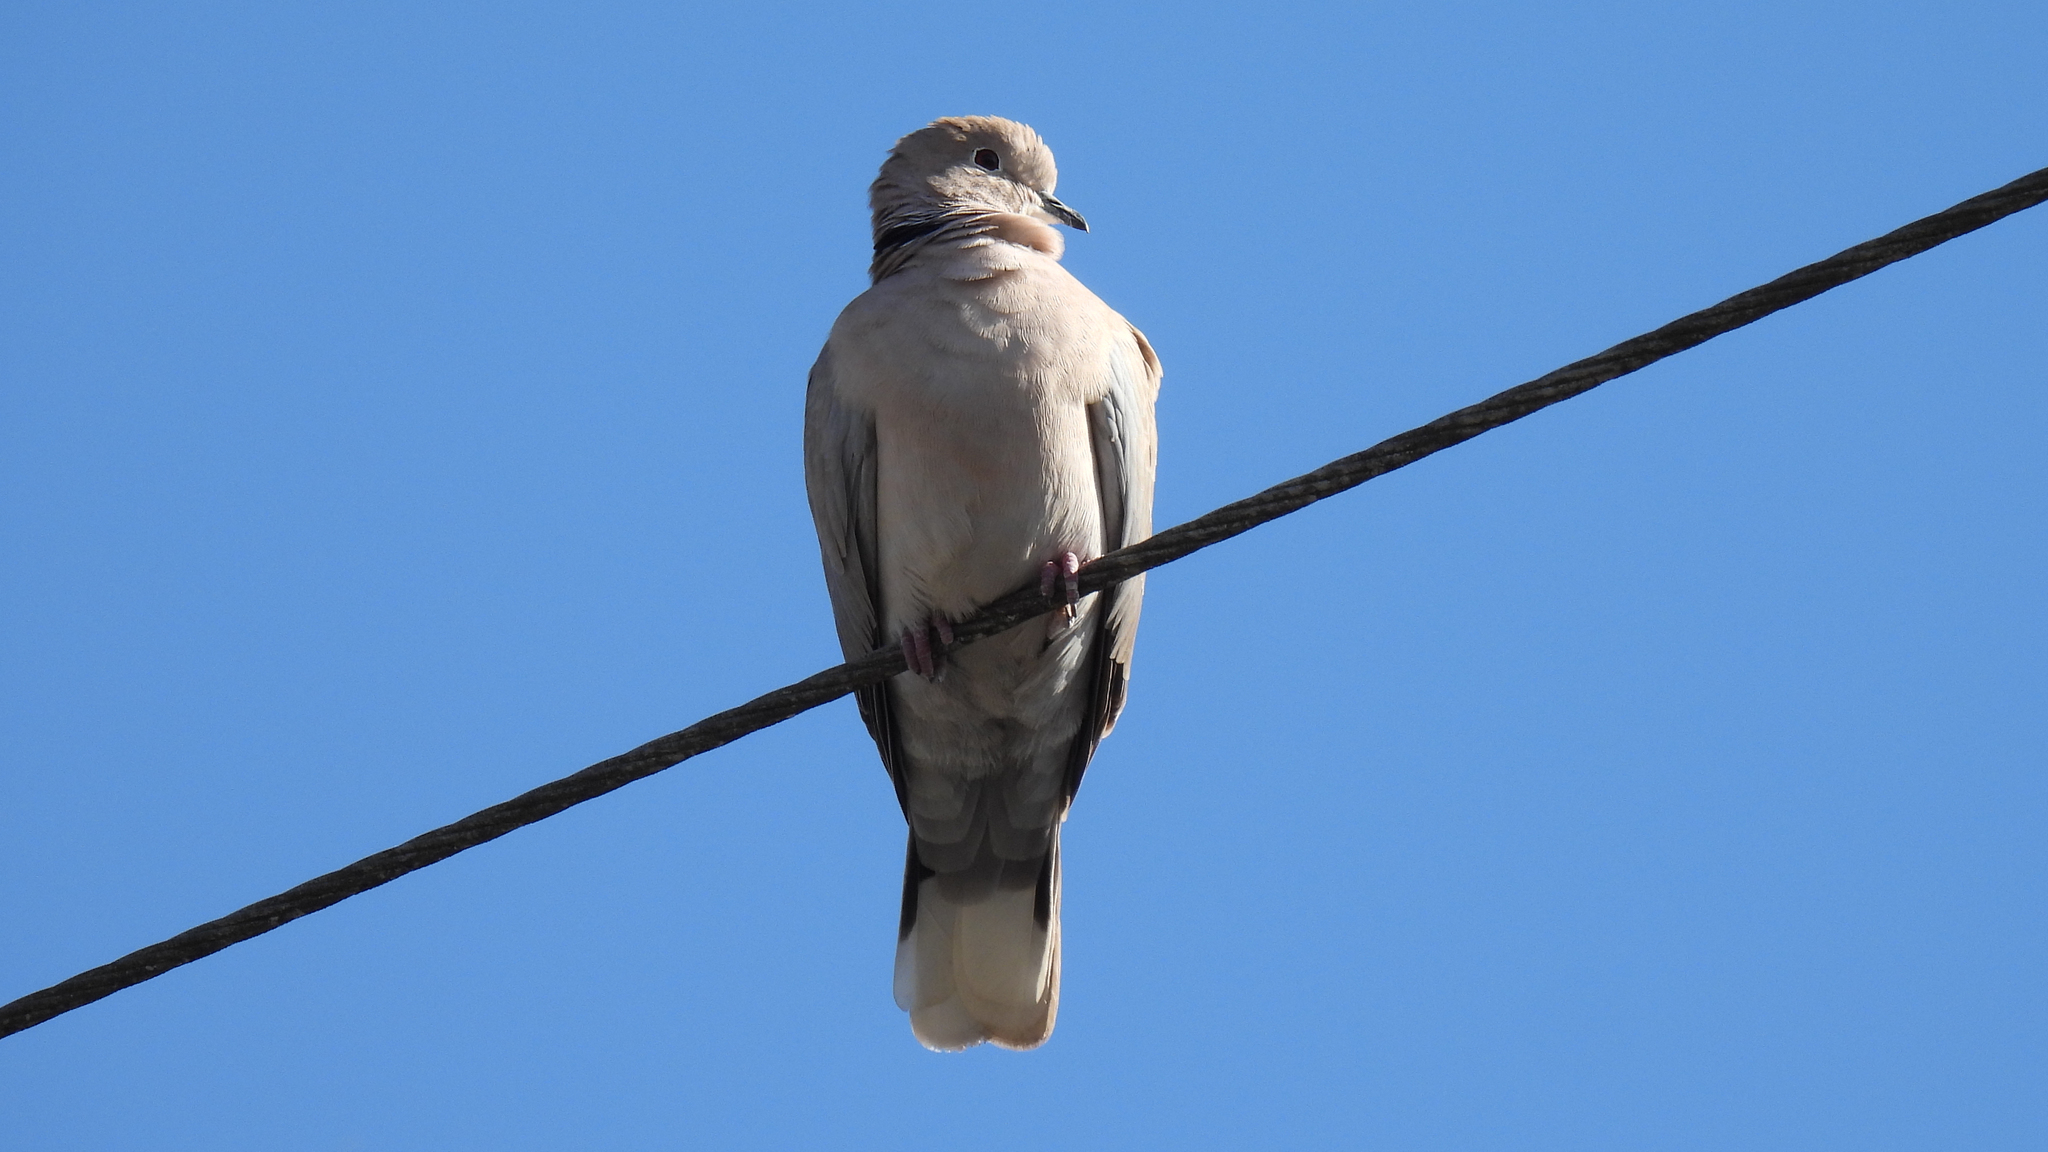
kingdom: Animalia
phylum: Chordata
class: Aves
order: Columbiformes
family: Columbidae
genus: Streptopelia
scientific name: Streptopelia decaocto
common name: Eurasian collared dove
